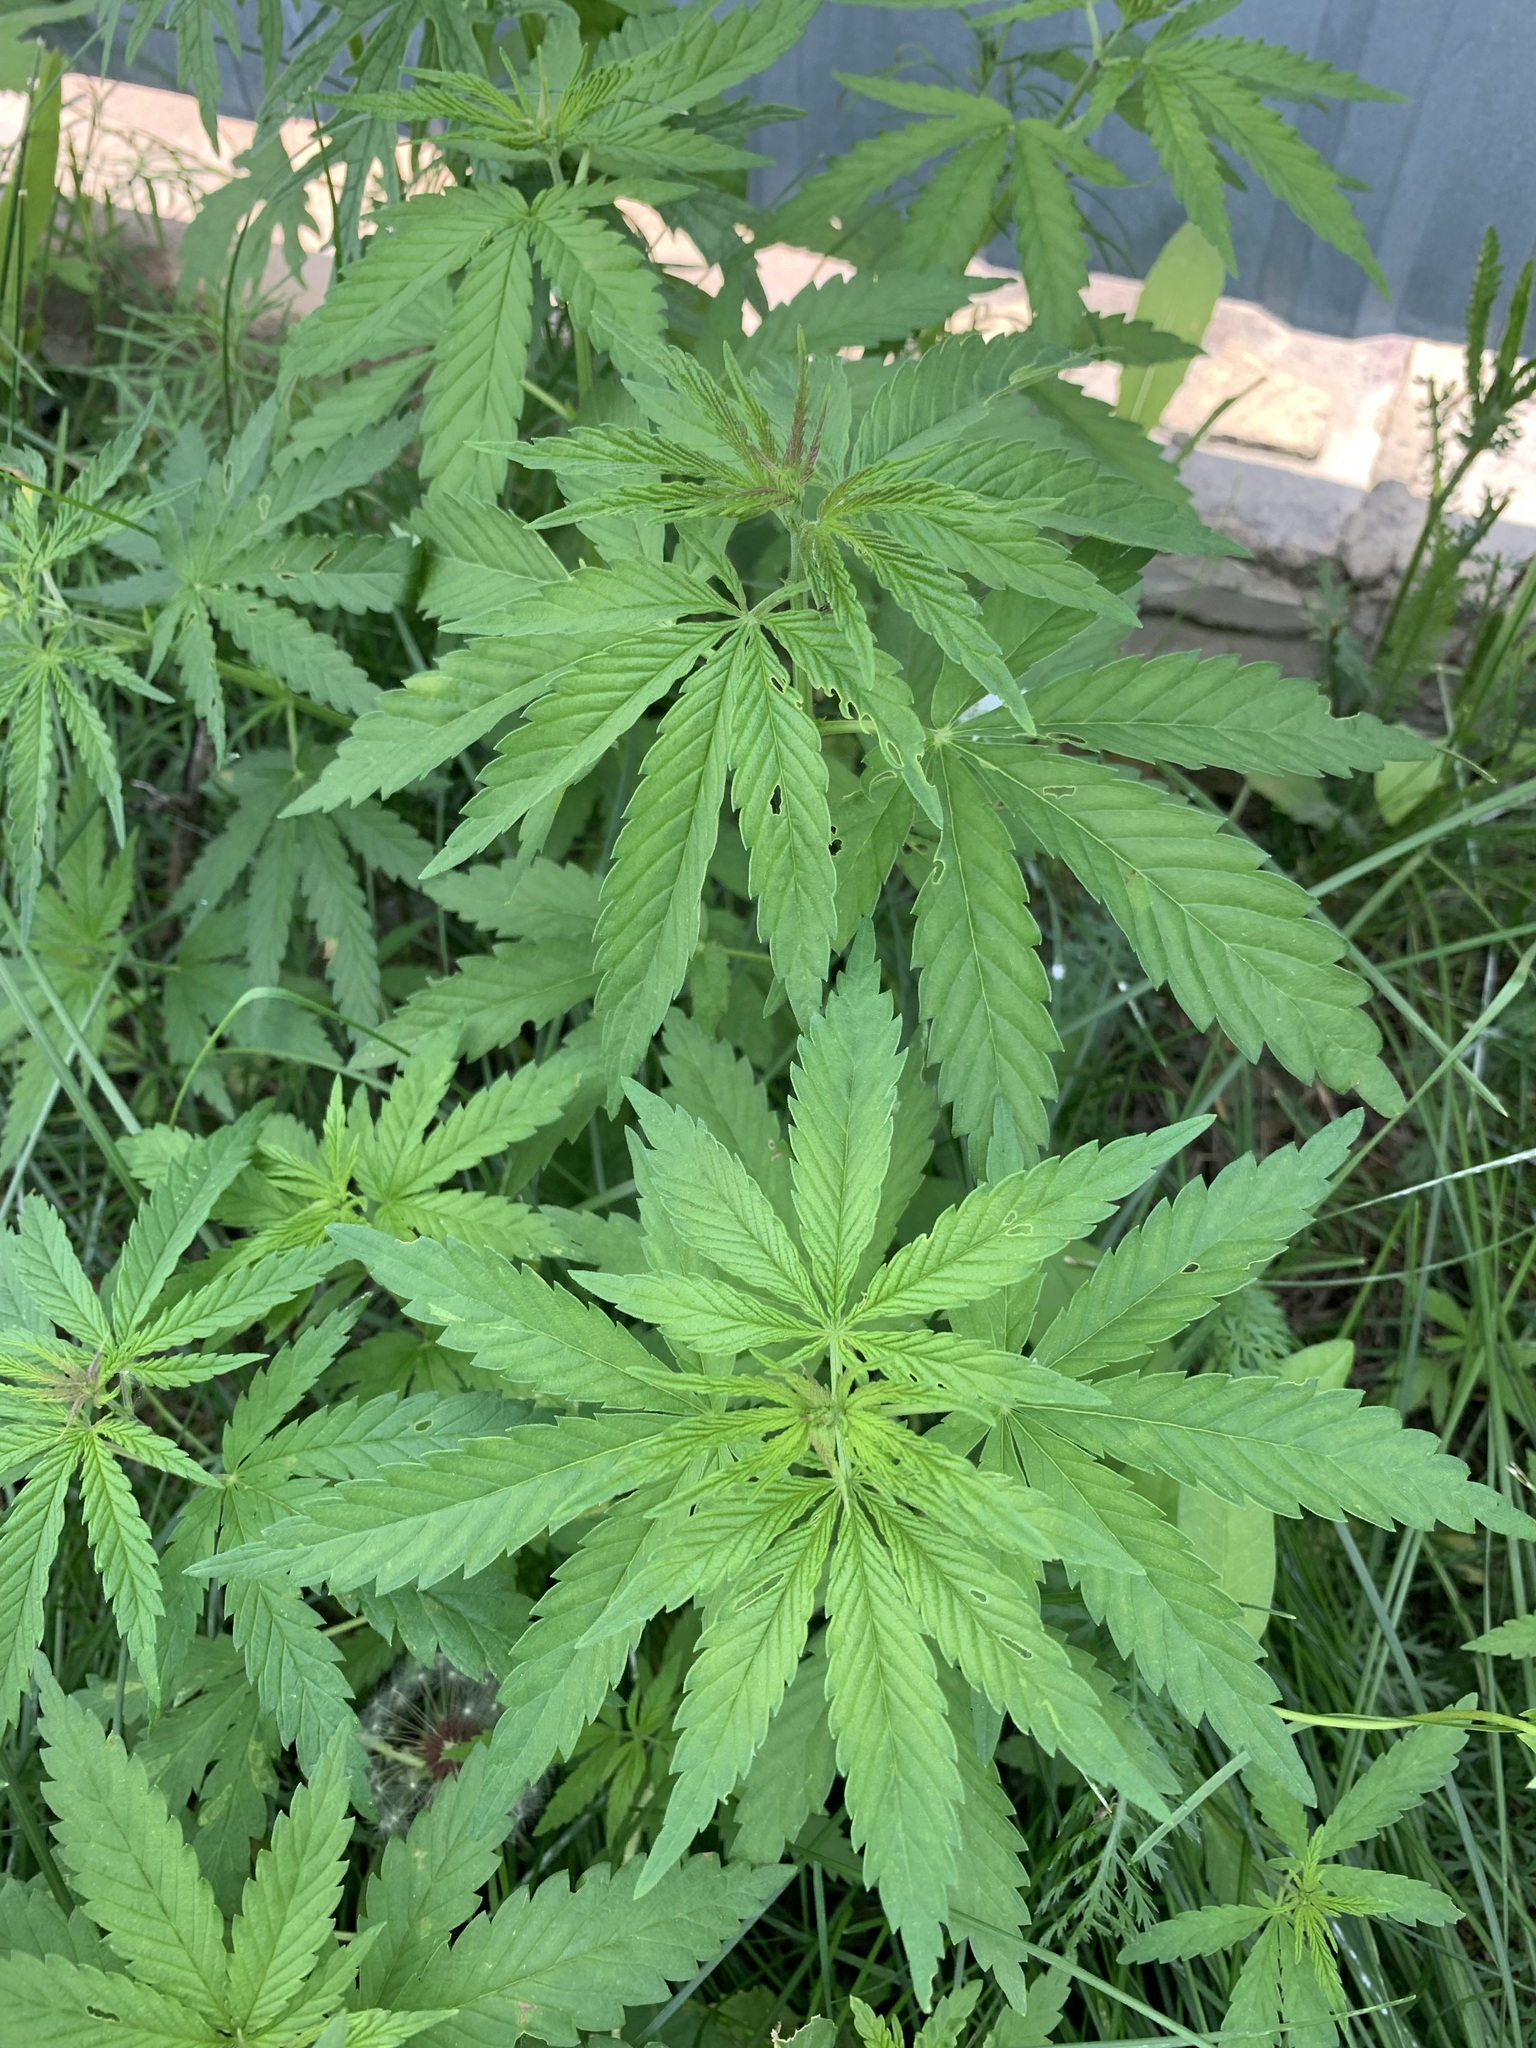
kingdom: Plantae
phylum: Tracheophyta
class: Magnoliopsida
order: Rosales
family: Cannabaceae
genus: Cannabis
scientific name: Cannabis sativa
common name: Hemp
